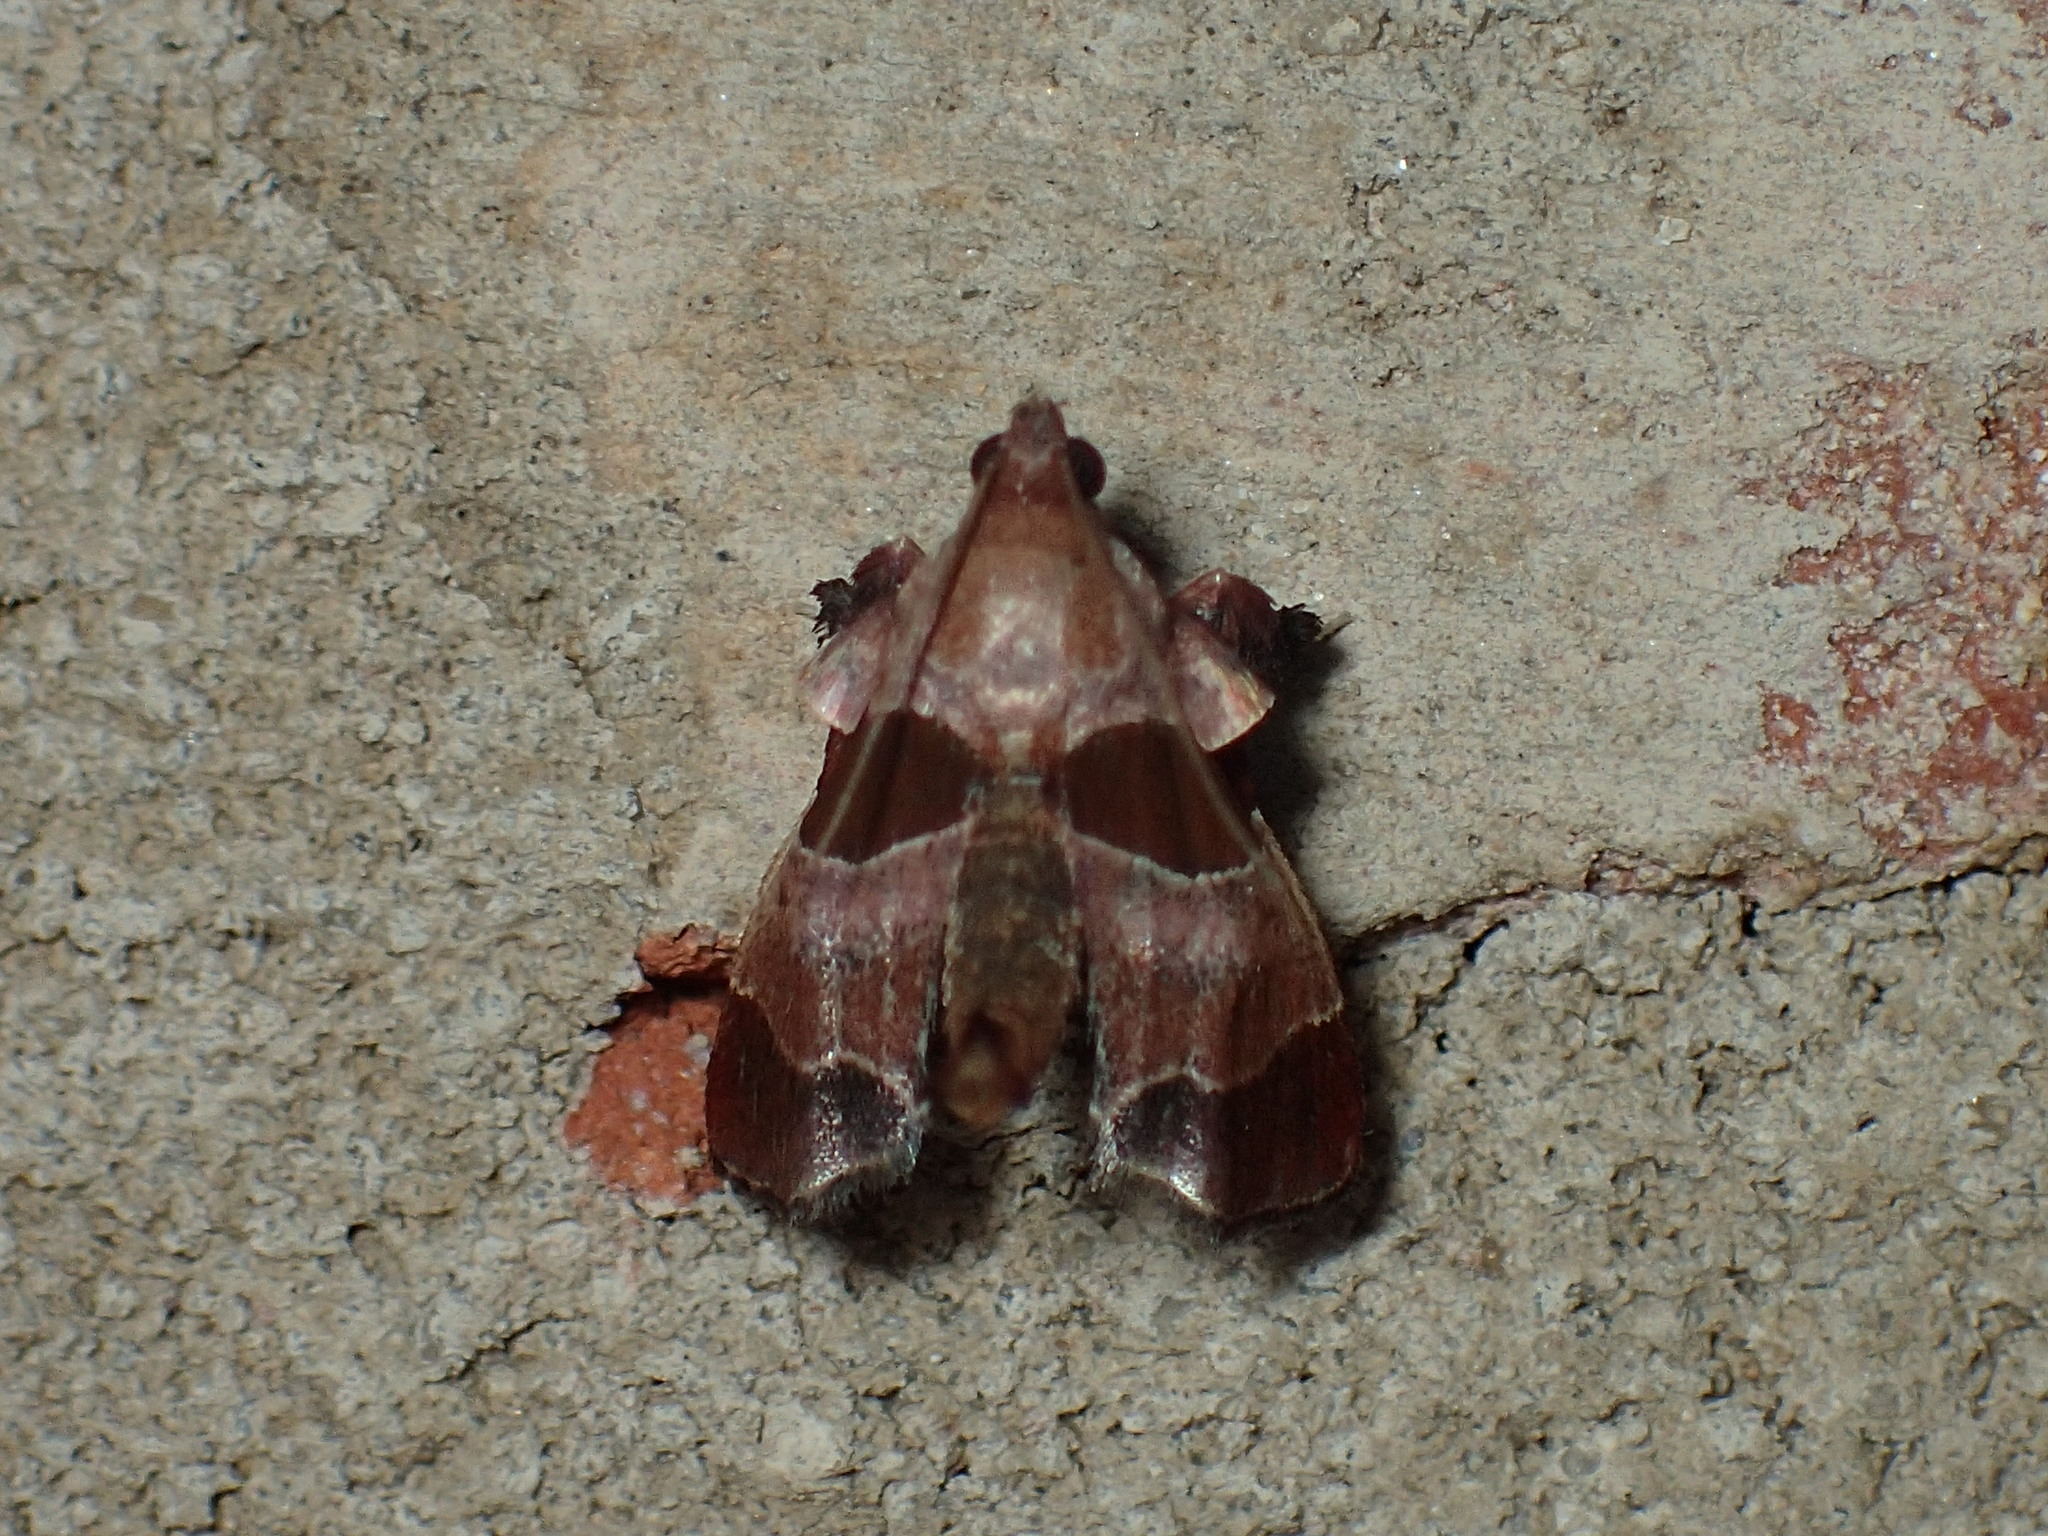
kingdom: Animalia
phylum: Arthropoda
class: Insecta
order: Lepidoptera
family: Pyralidae
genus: Tosale
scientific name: Tosale oviplagalis
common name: Dimorphic tosale moth
